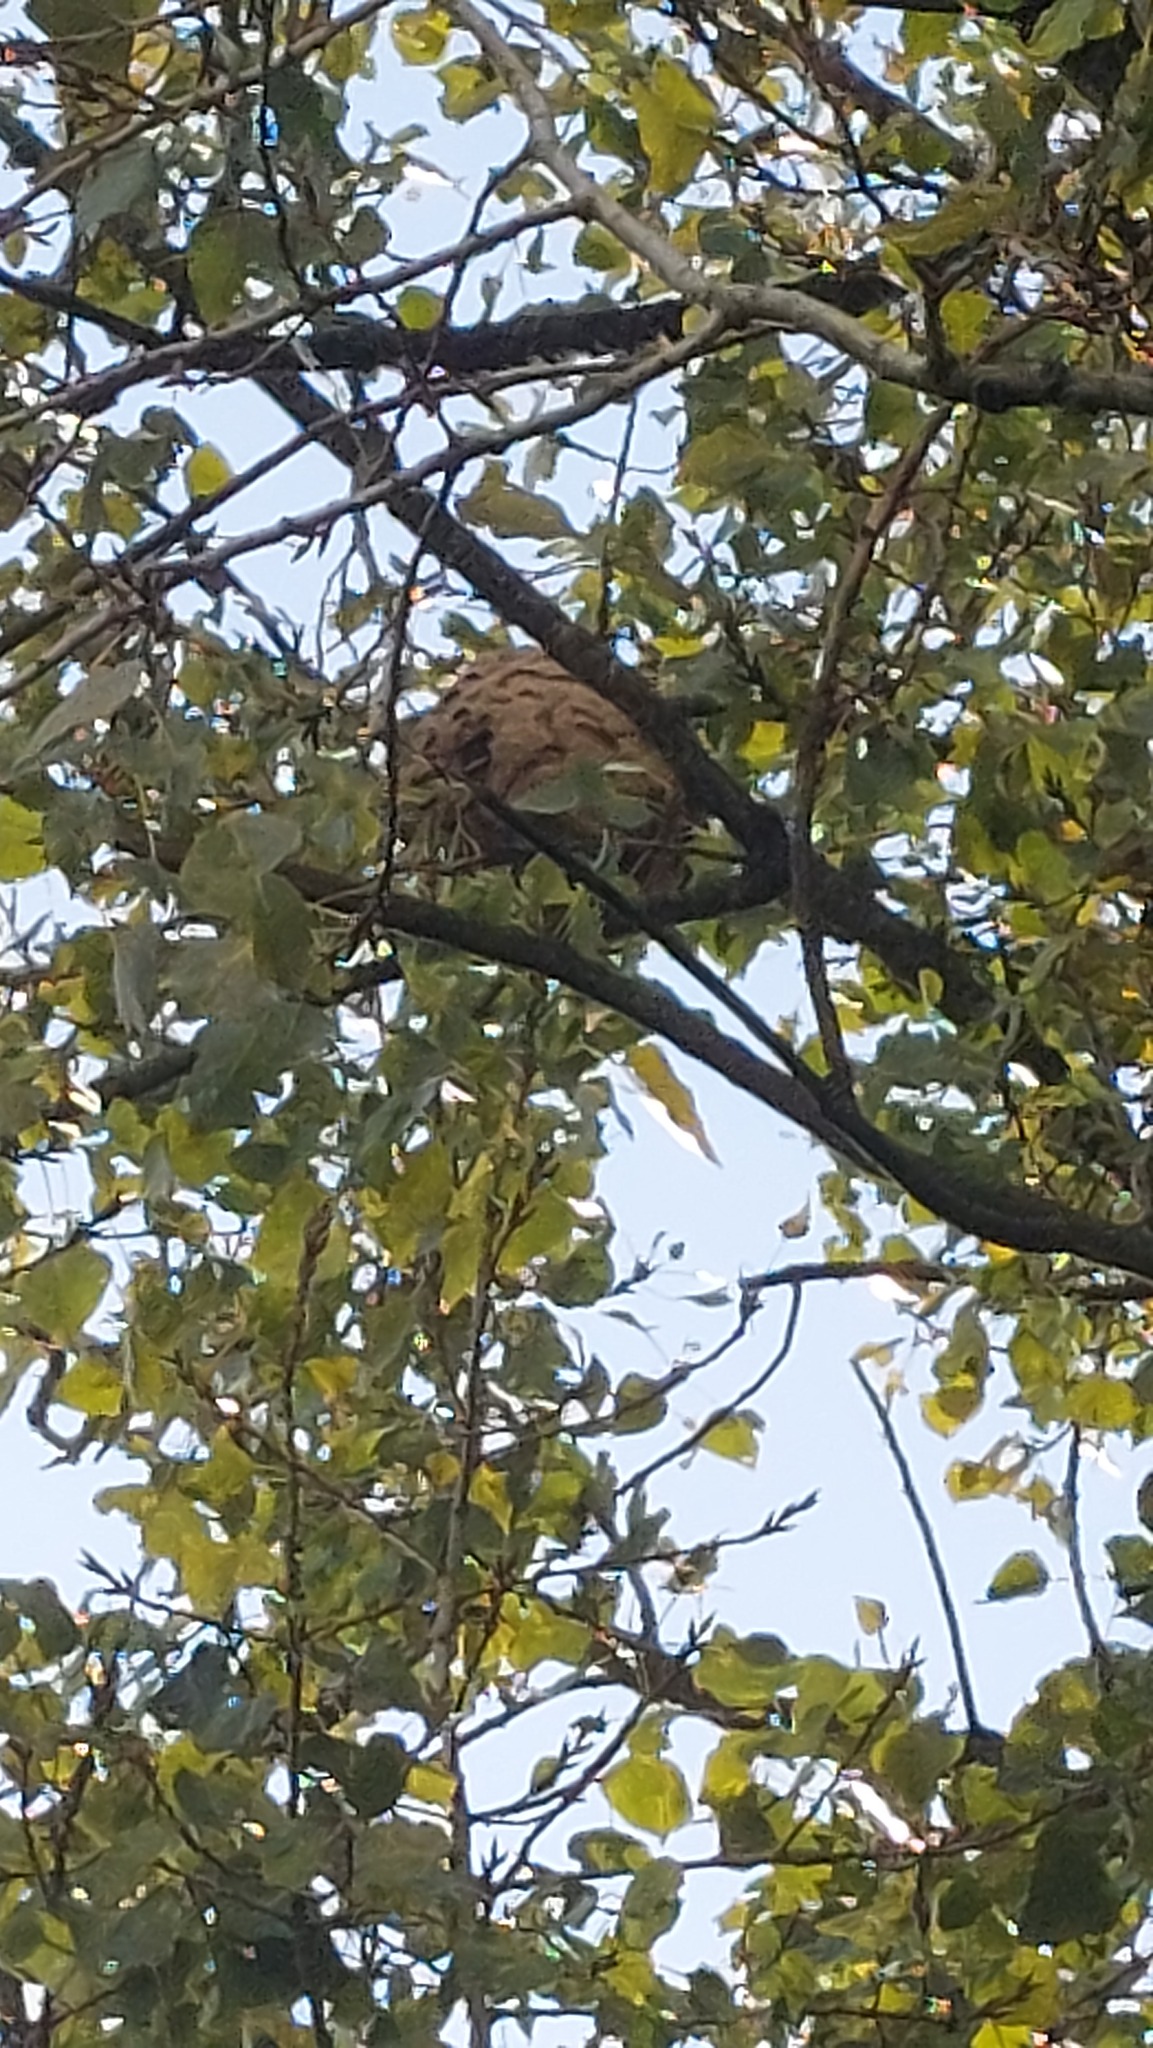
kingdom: Animalia
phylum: Arthropoda
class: Insecta
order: Hymenoptera
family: Vespidae
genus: Vespa
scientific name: Vespa velutina
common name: Asian hornet
